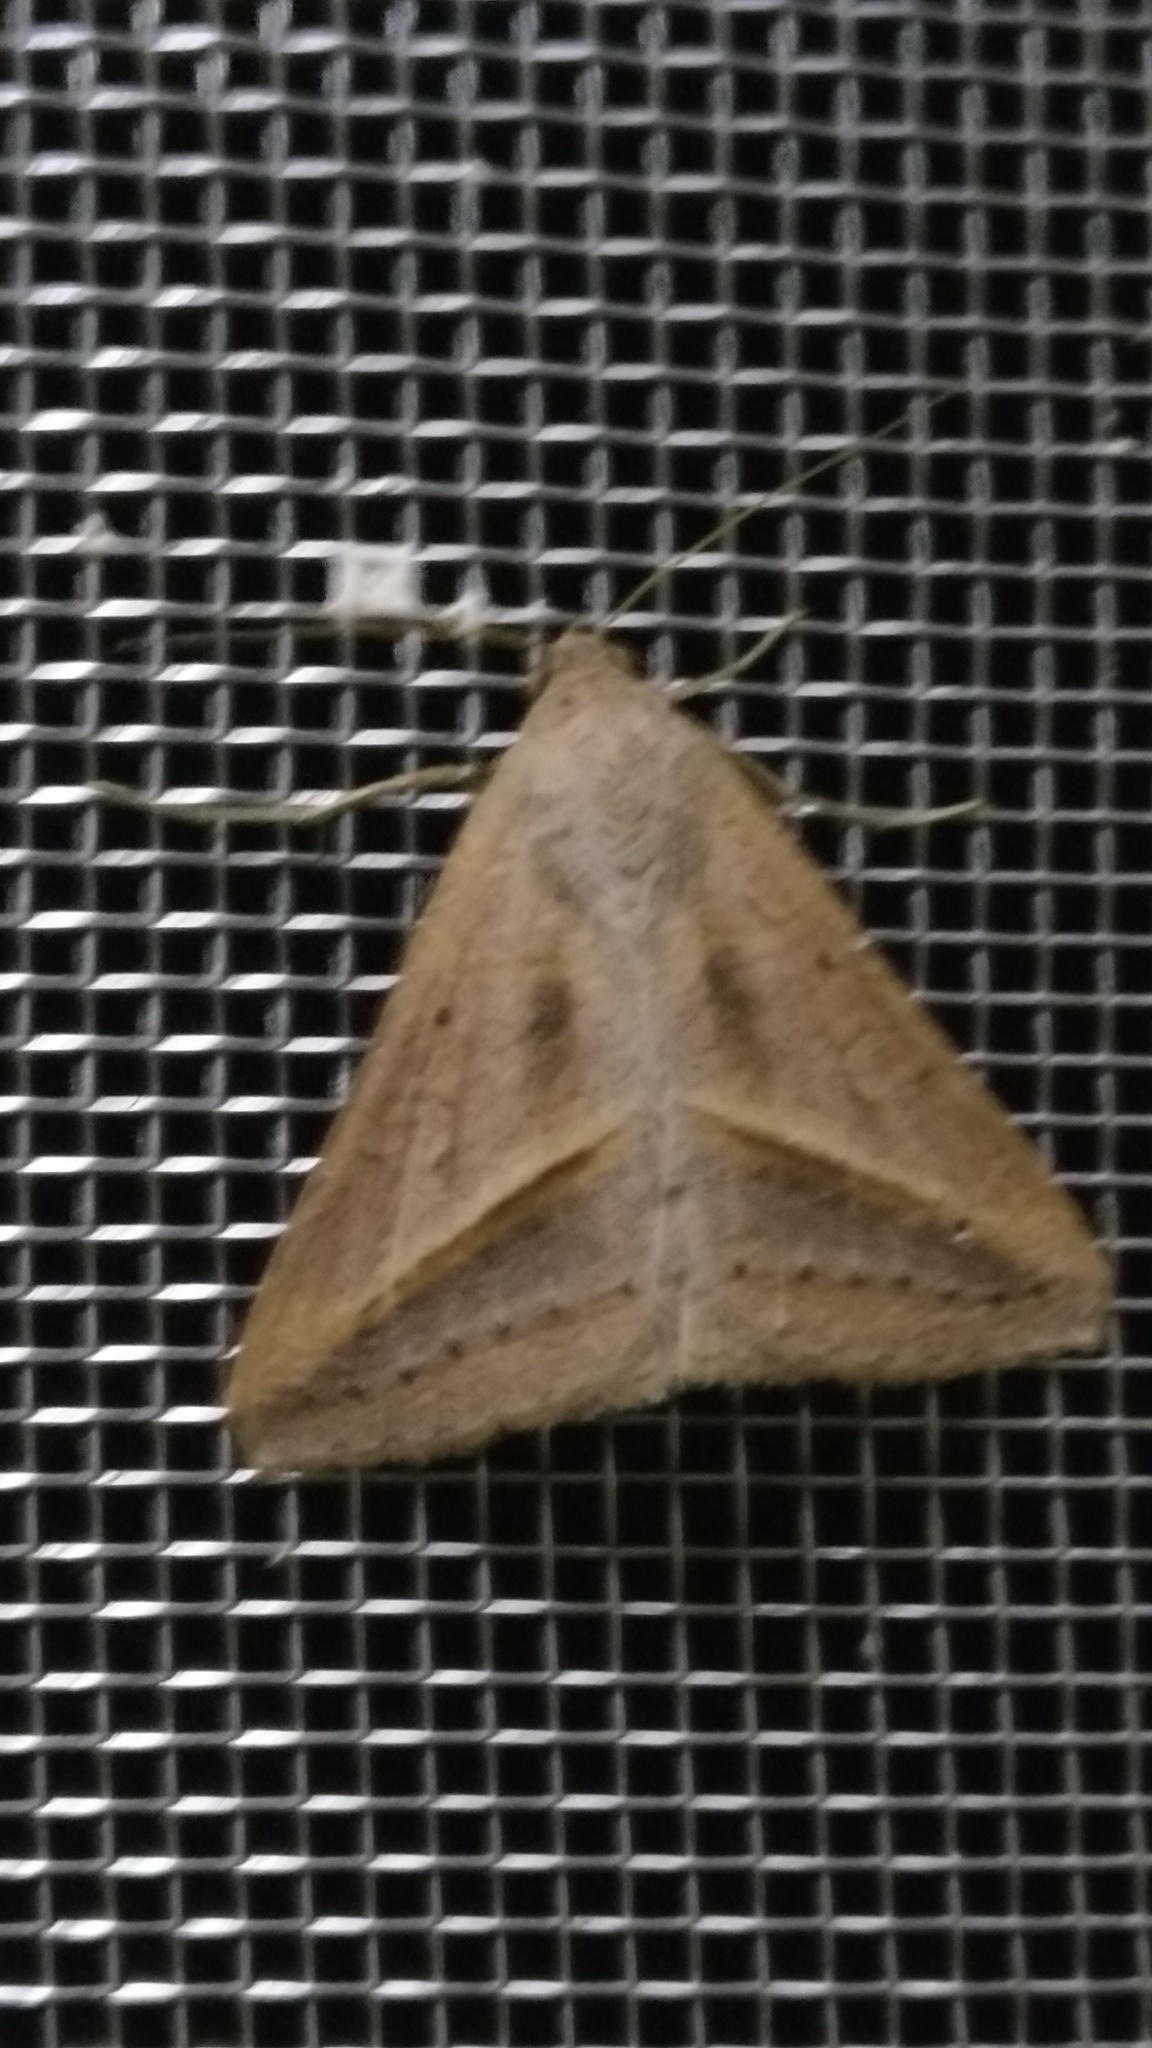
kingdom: Animalia
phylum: Arthropoda
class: Insecta
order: Lepidoptera
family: Erebidae
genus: Mocis
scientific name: Mocis frugalis
